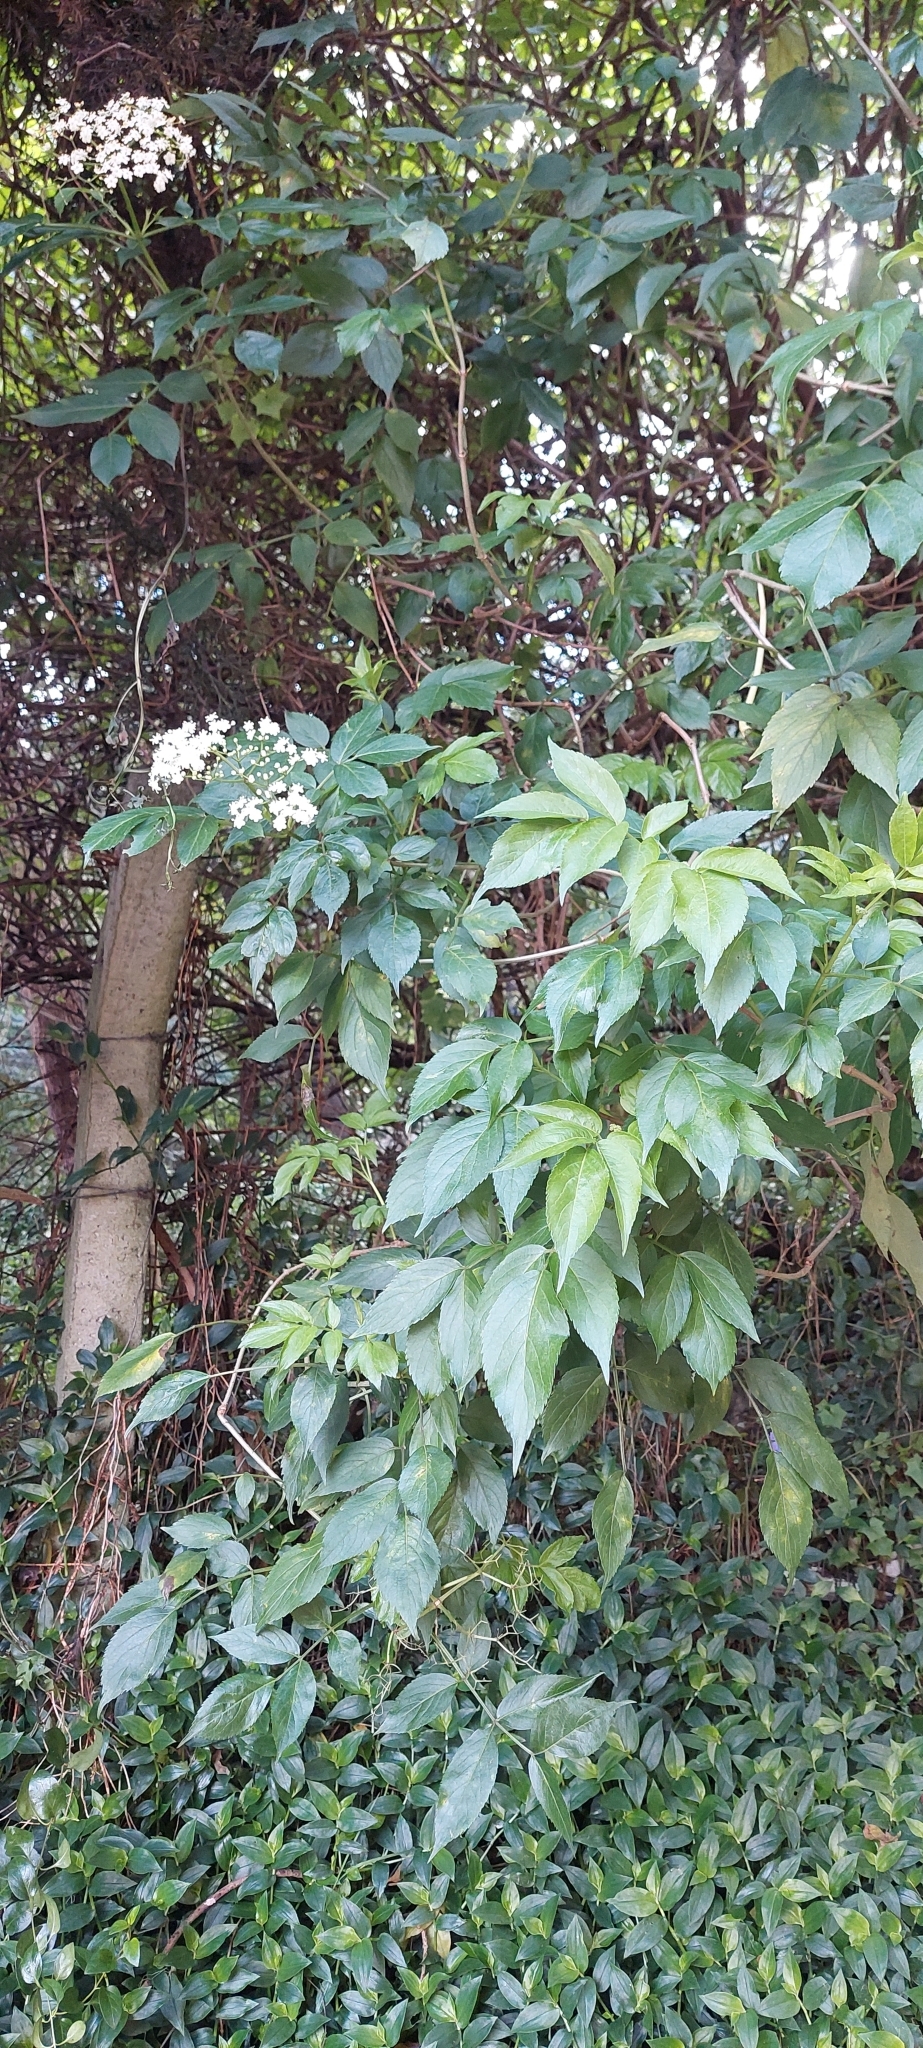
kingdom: Plantae
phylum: Tracheophyta
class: Magnoliopsida
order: Dipsacales
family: Viburnaceae
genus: Sambucus
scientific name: Sambucus nigra
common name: Elder
